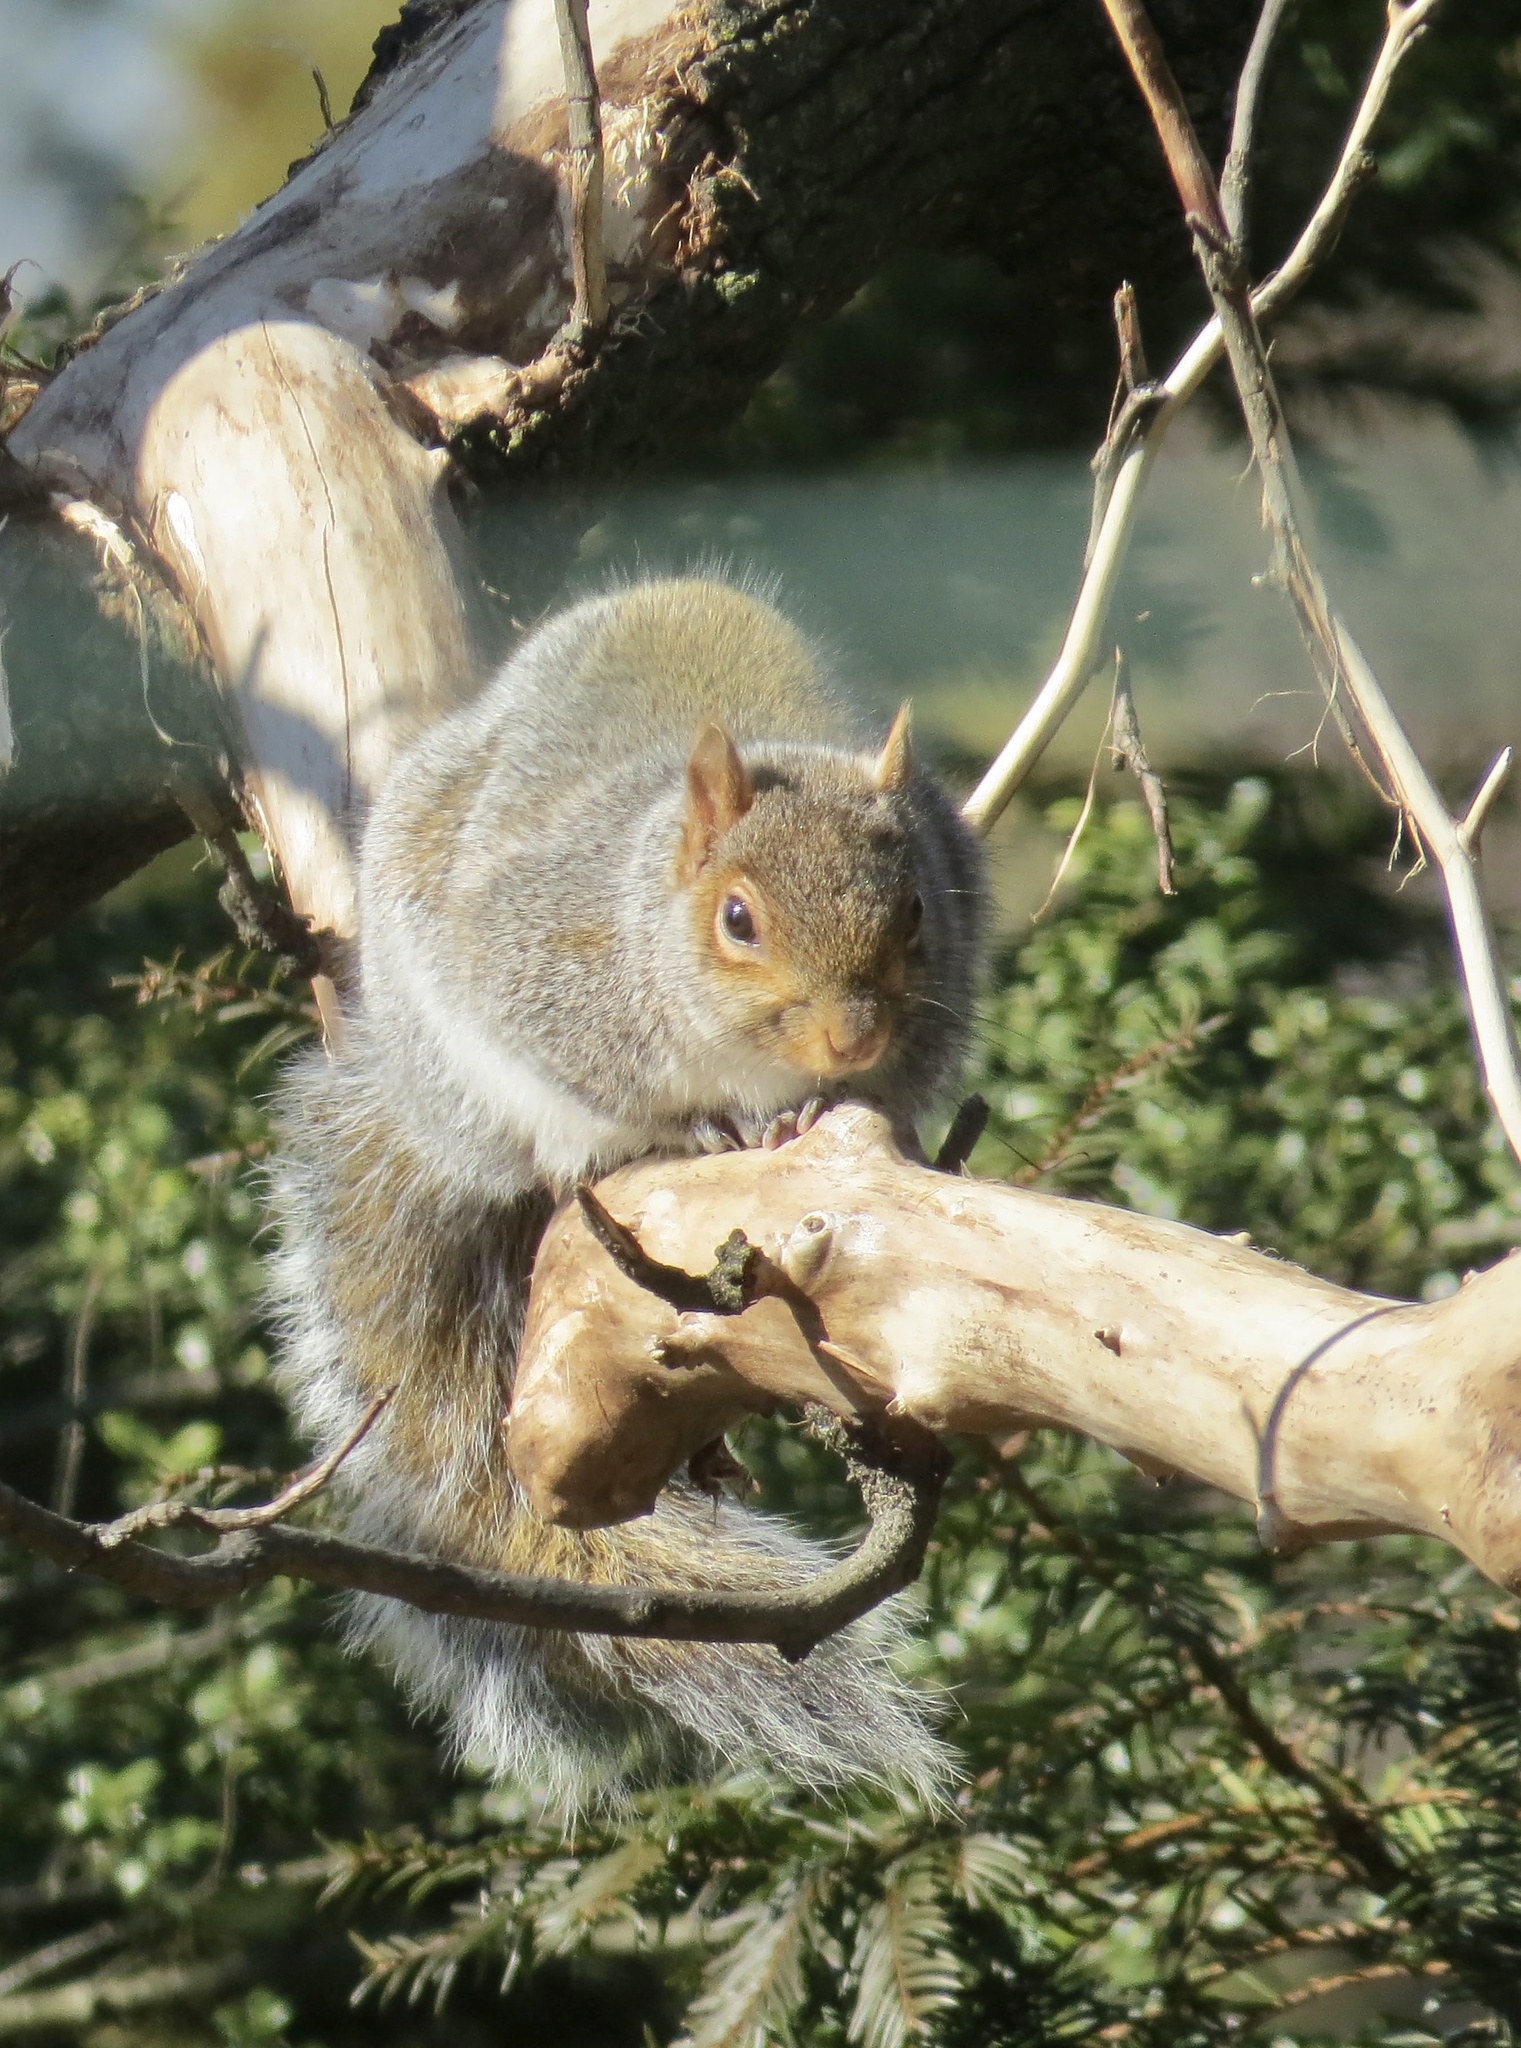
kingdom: Animalia
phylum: Chordata
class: Mammalia
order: Rodentia
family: Sciuridae
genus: Sciurus
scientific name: Sciurus carolinensis
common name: Eastern gray squirrel
